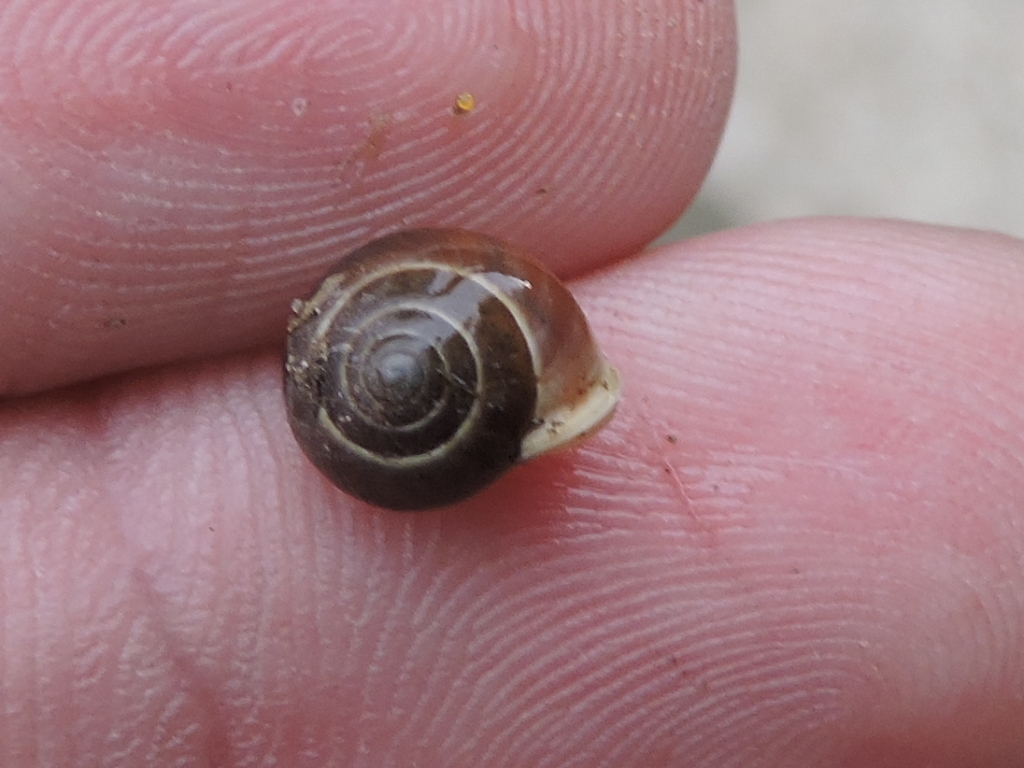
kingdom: Animalia
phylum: Mollusca
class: Gastropoda
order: Cycloneritida
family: Helicinidae
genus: Helicina
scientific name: Helicina orbiculata
